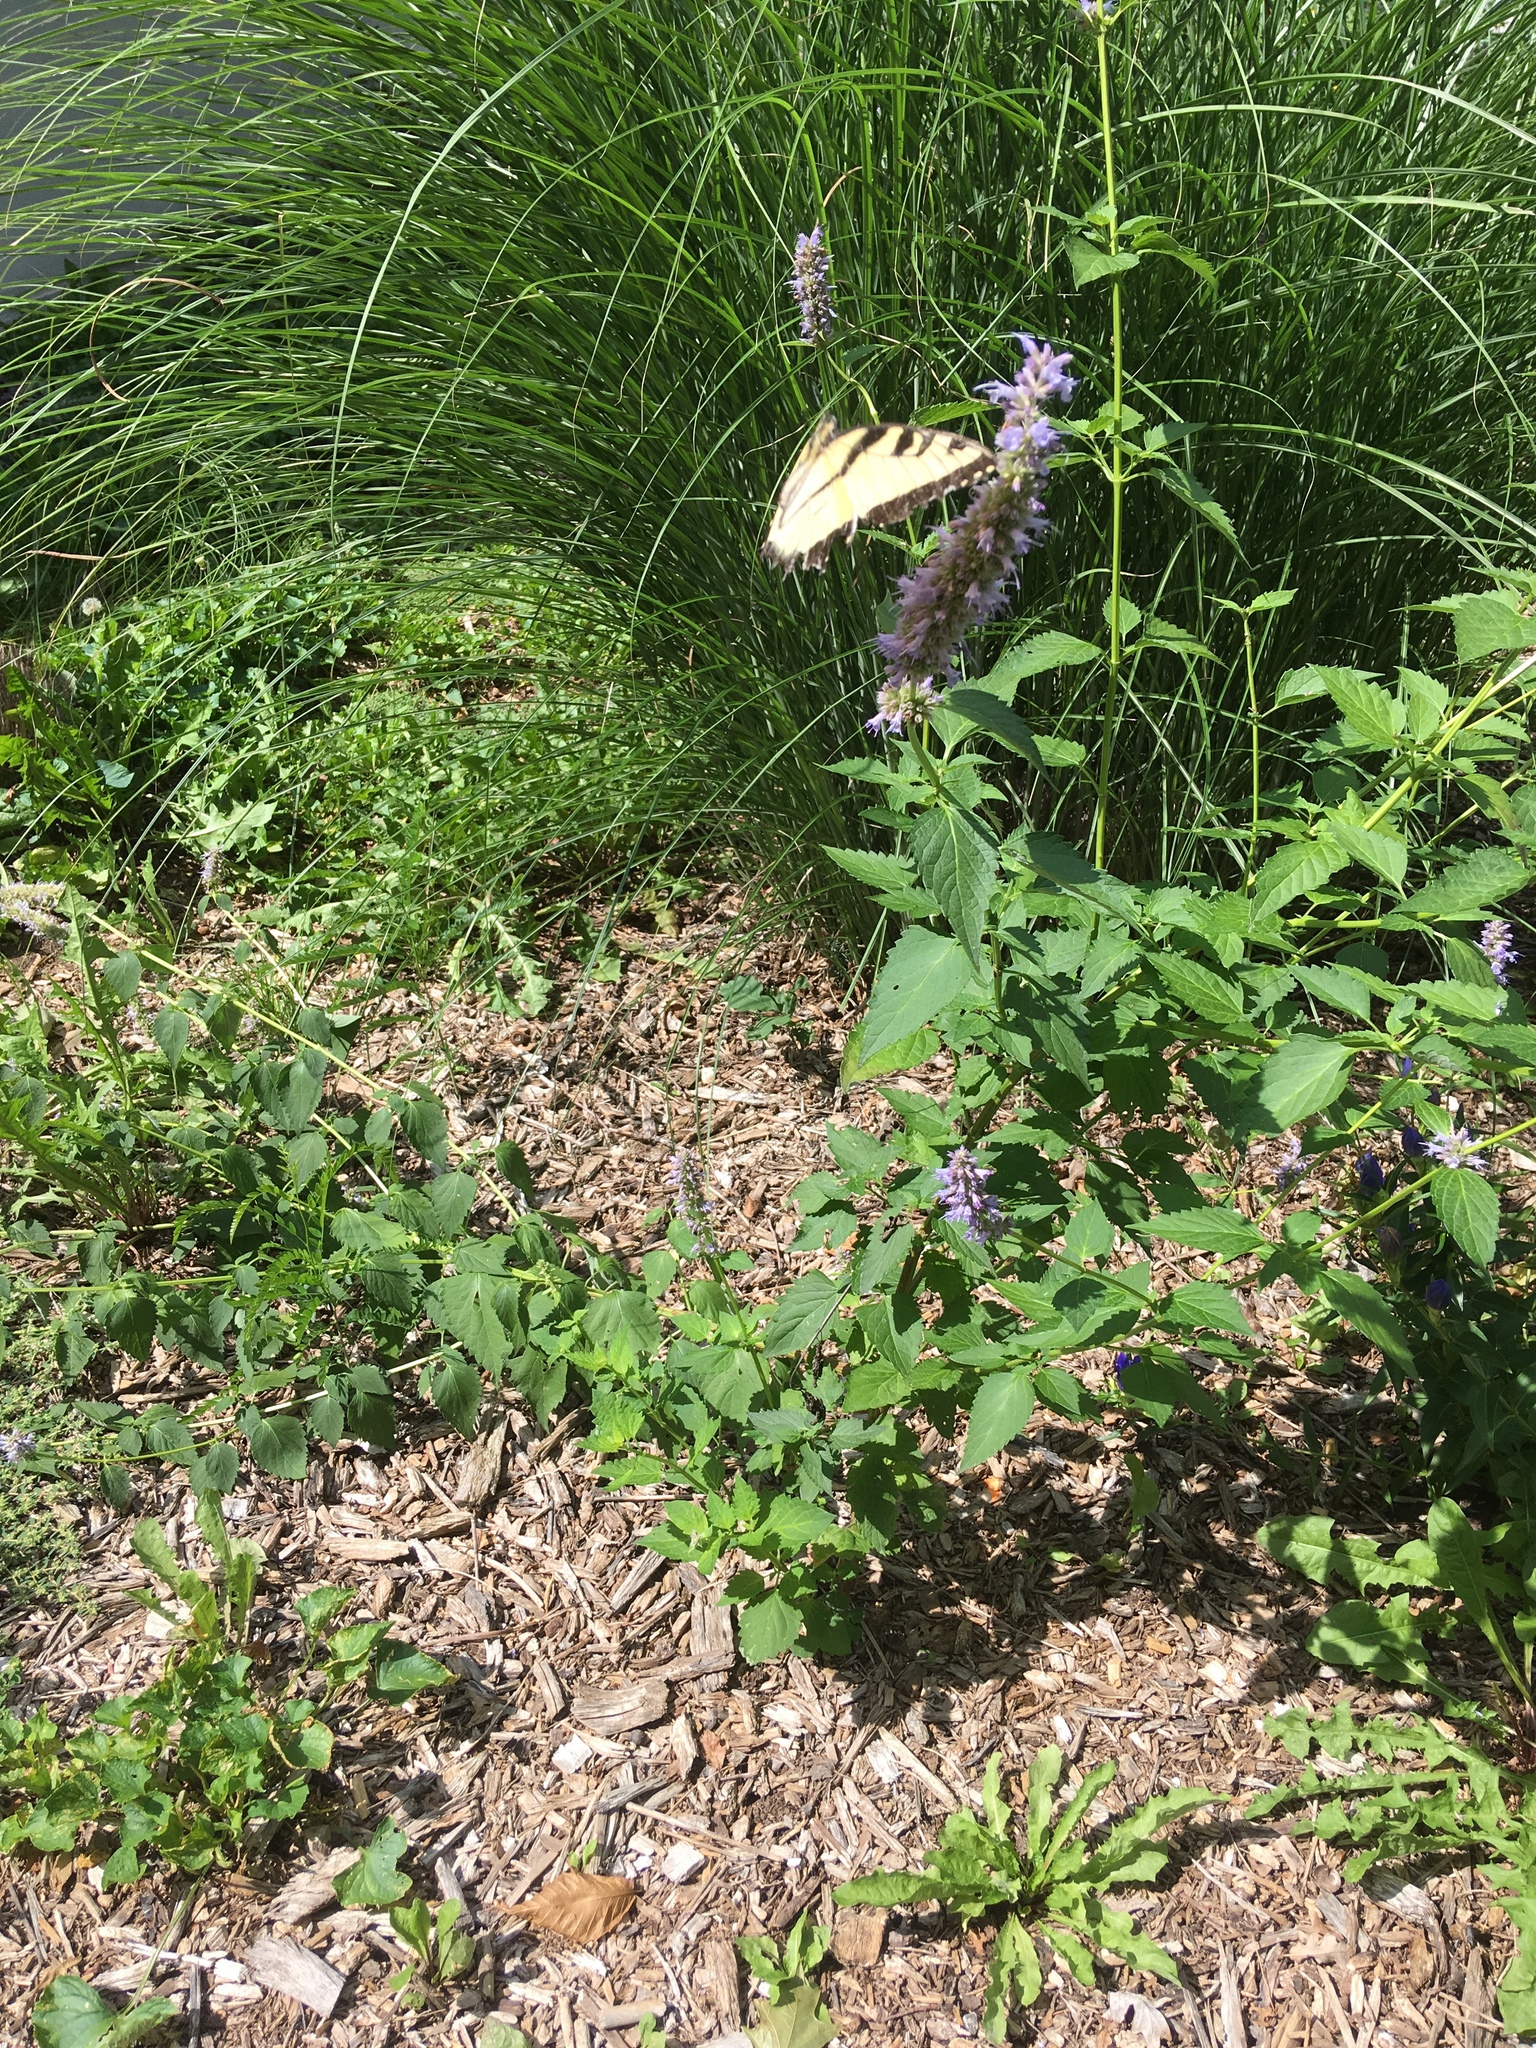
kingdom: Animalia
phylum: Arthropoda
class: Insecta
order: Lepidoptera
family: Papilionidae
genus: Papilio
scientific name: Papilio glaucus
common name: Tiger swallowtail
